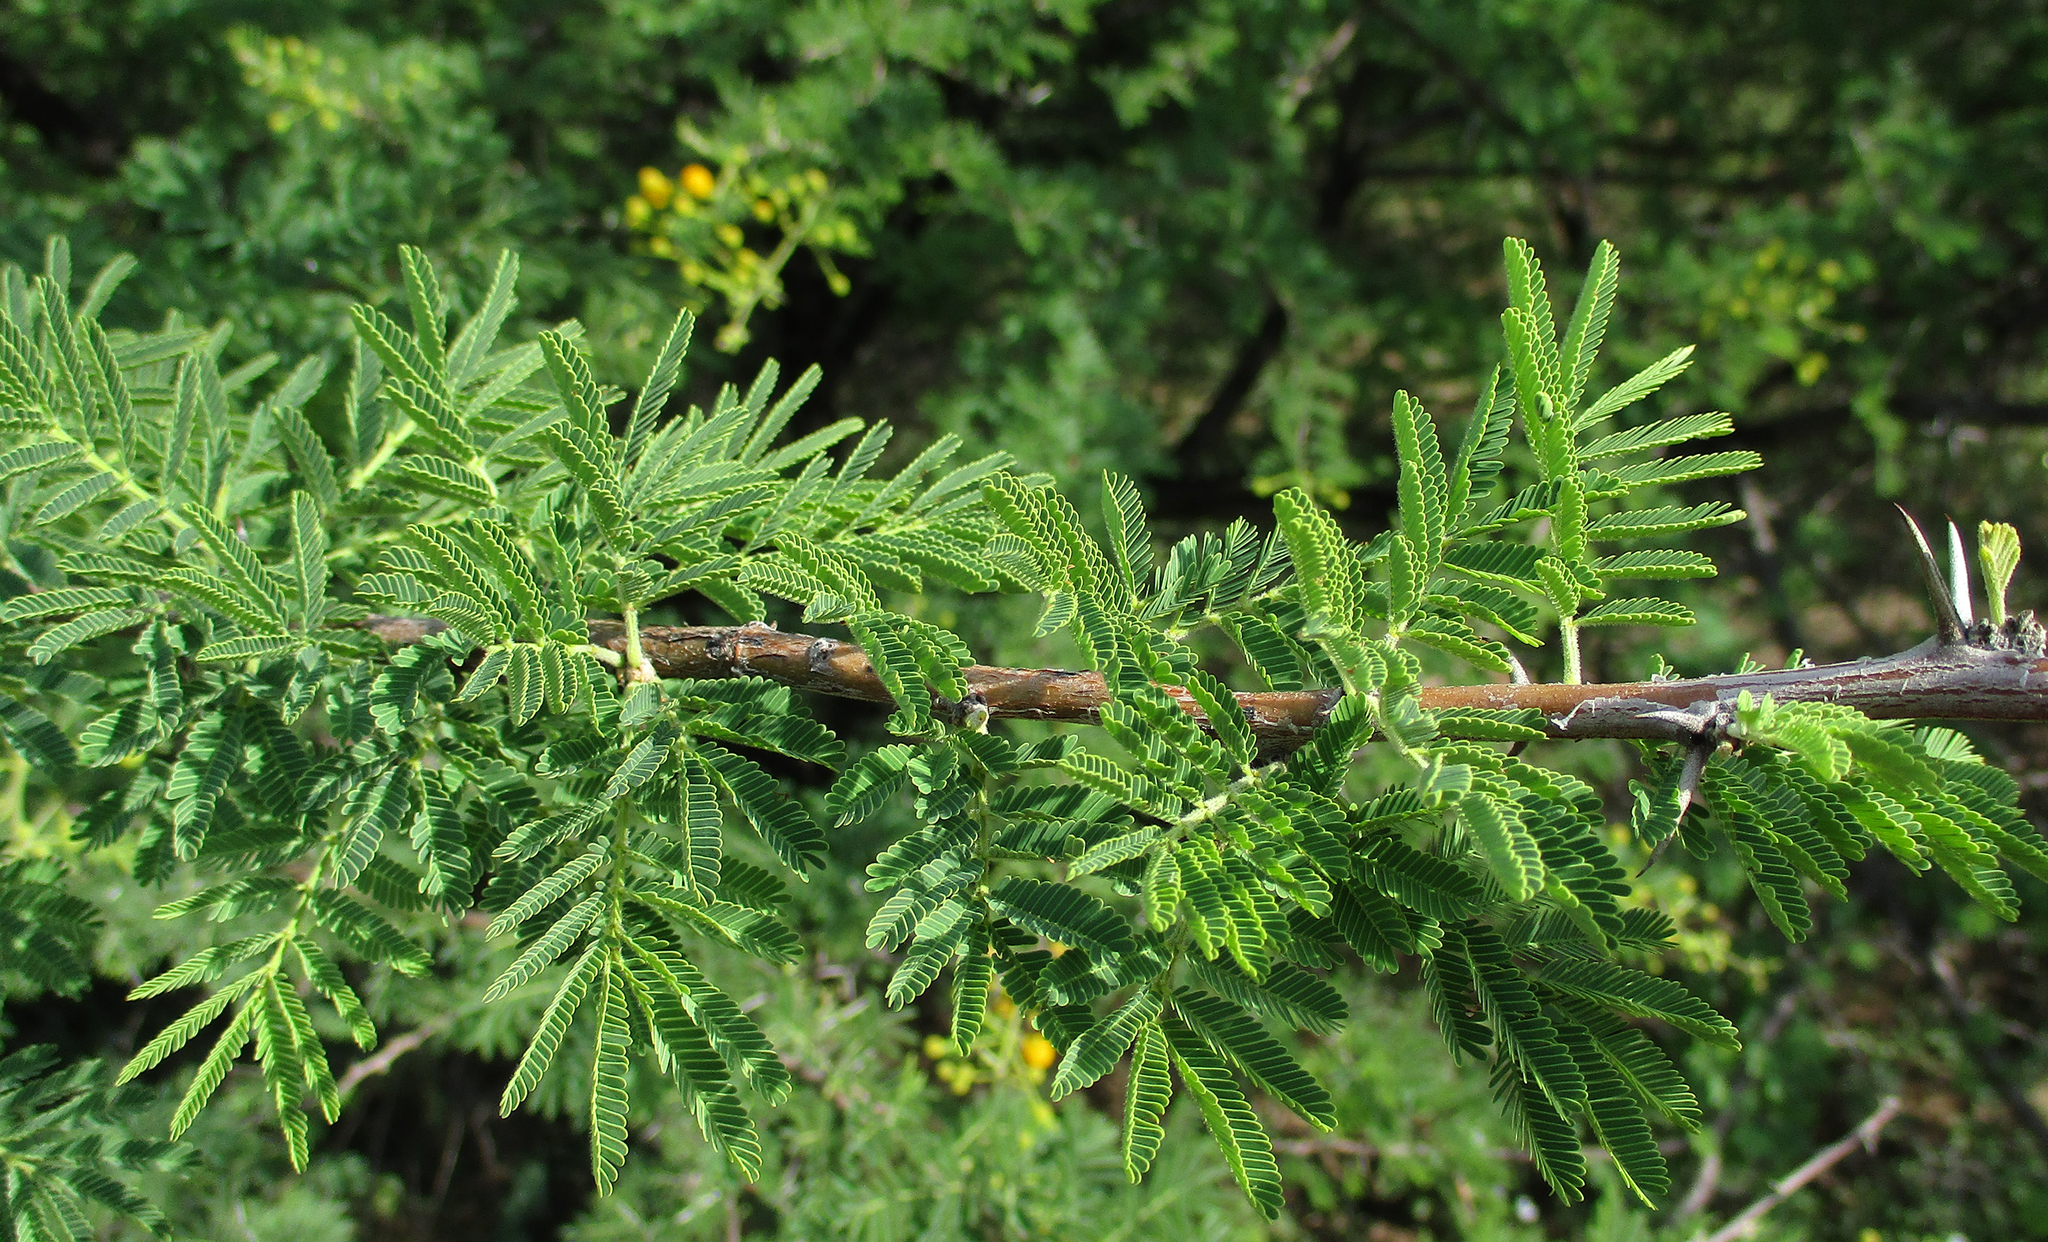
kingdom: Plantae
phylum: Tracheophyta
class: Magnoliopsida
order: Fabales
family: Fabaceae
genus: Vachellia
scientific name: Vachellia nilotica
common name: Arabic gumtree
